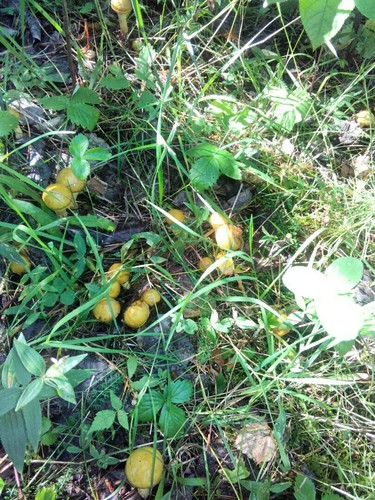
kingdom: Fungi
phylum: Basidiomycota
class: Agaricomycetes
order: Boletales
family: Suillaceae
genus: Suillus
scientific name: Suillus
